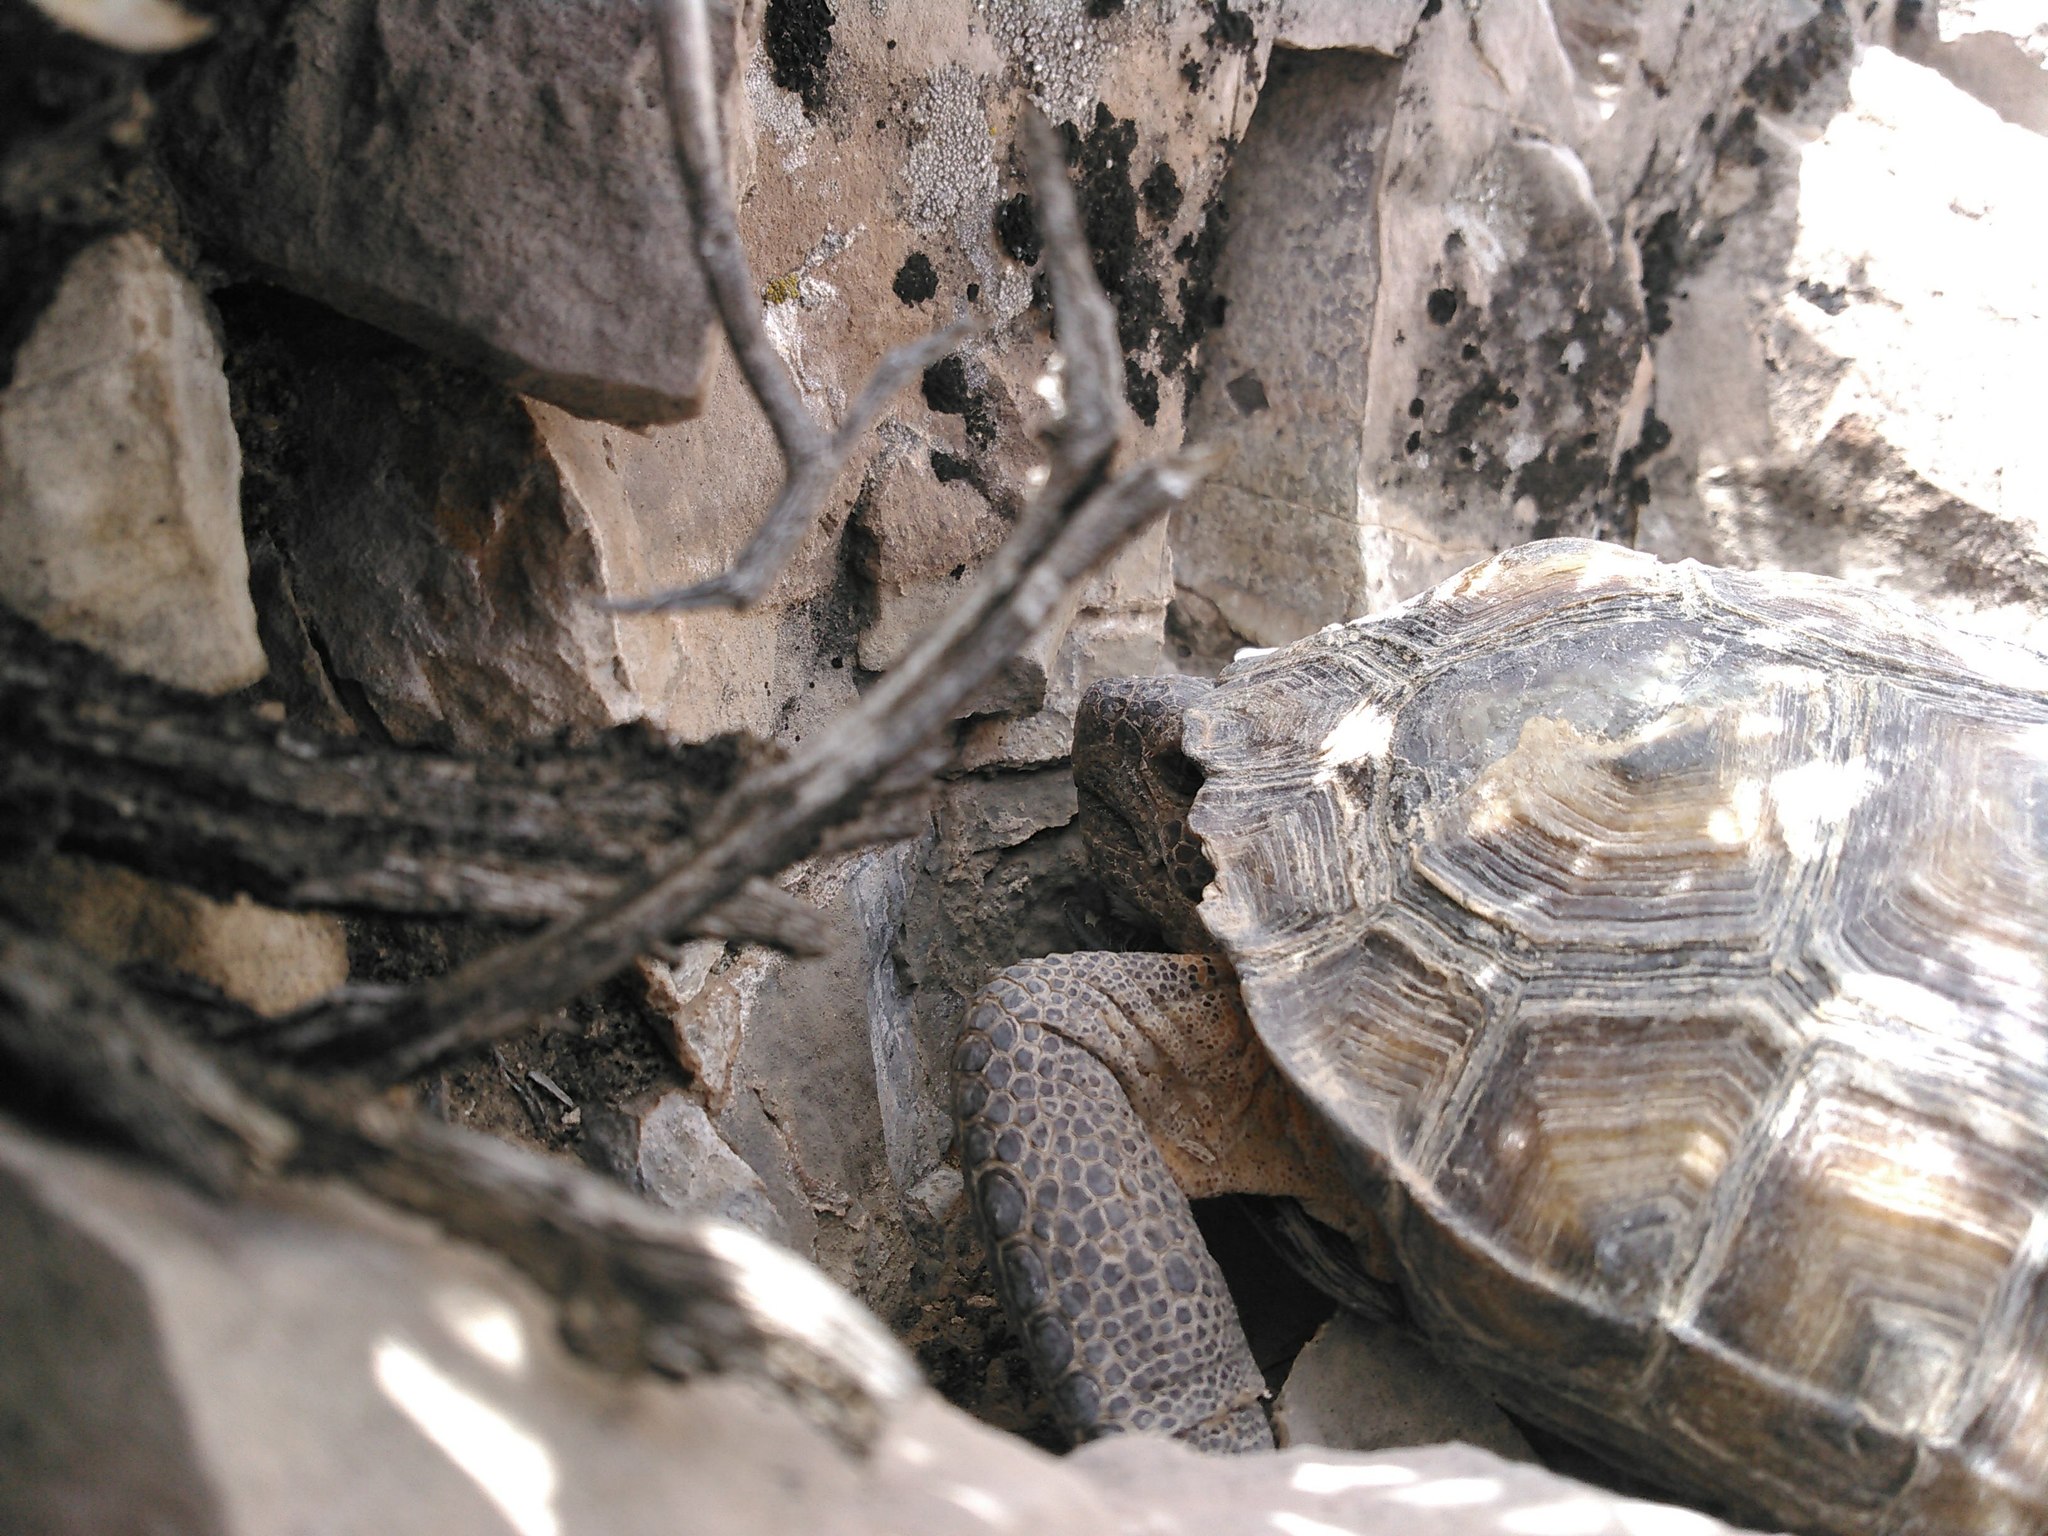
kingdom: Animalia
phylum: Chordata
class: Testudines
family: Testudinidae
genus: Gopherus
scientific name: Gopherus agassizii
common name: Mojave desert tortoise
